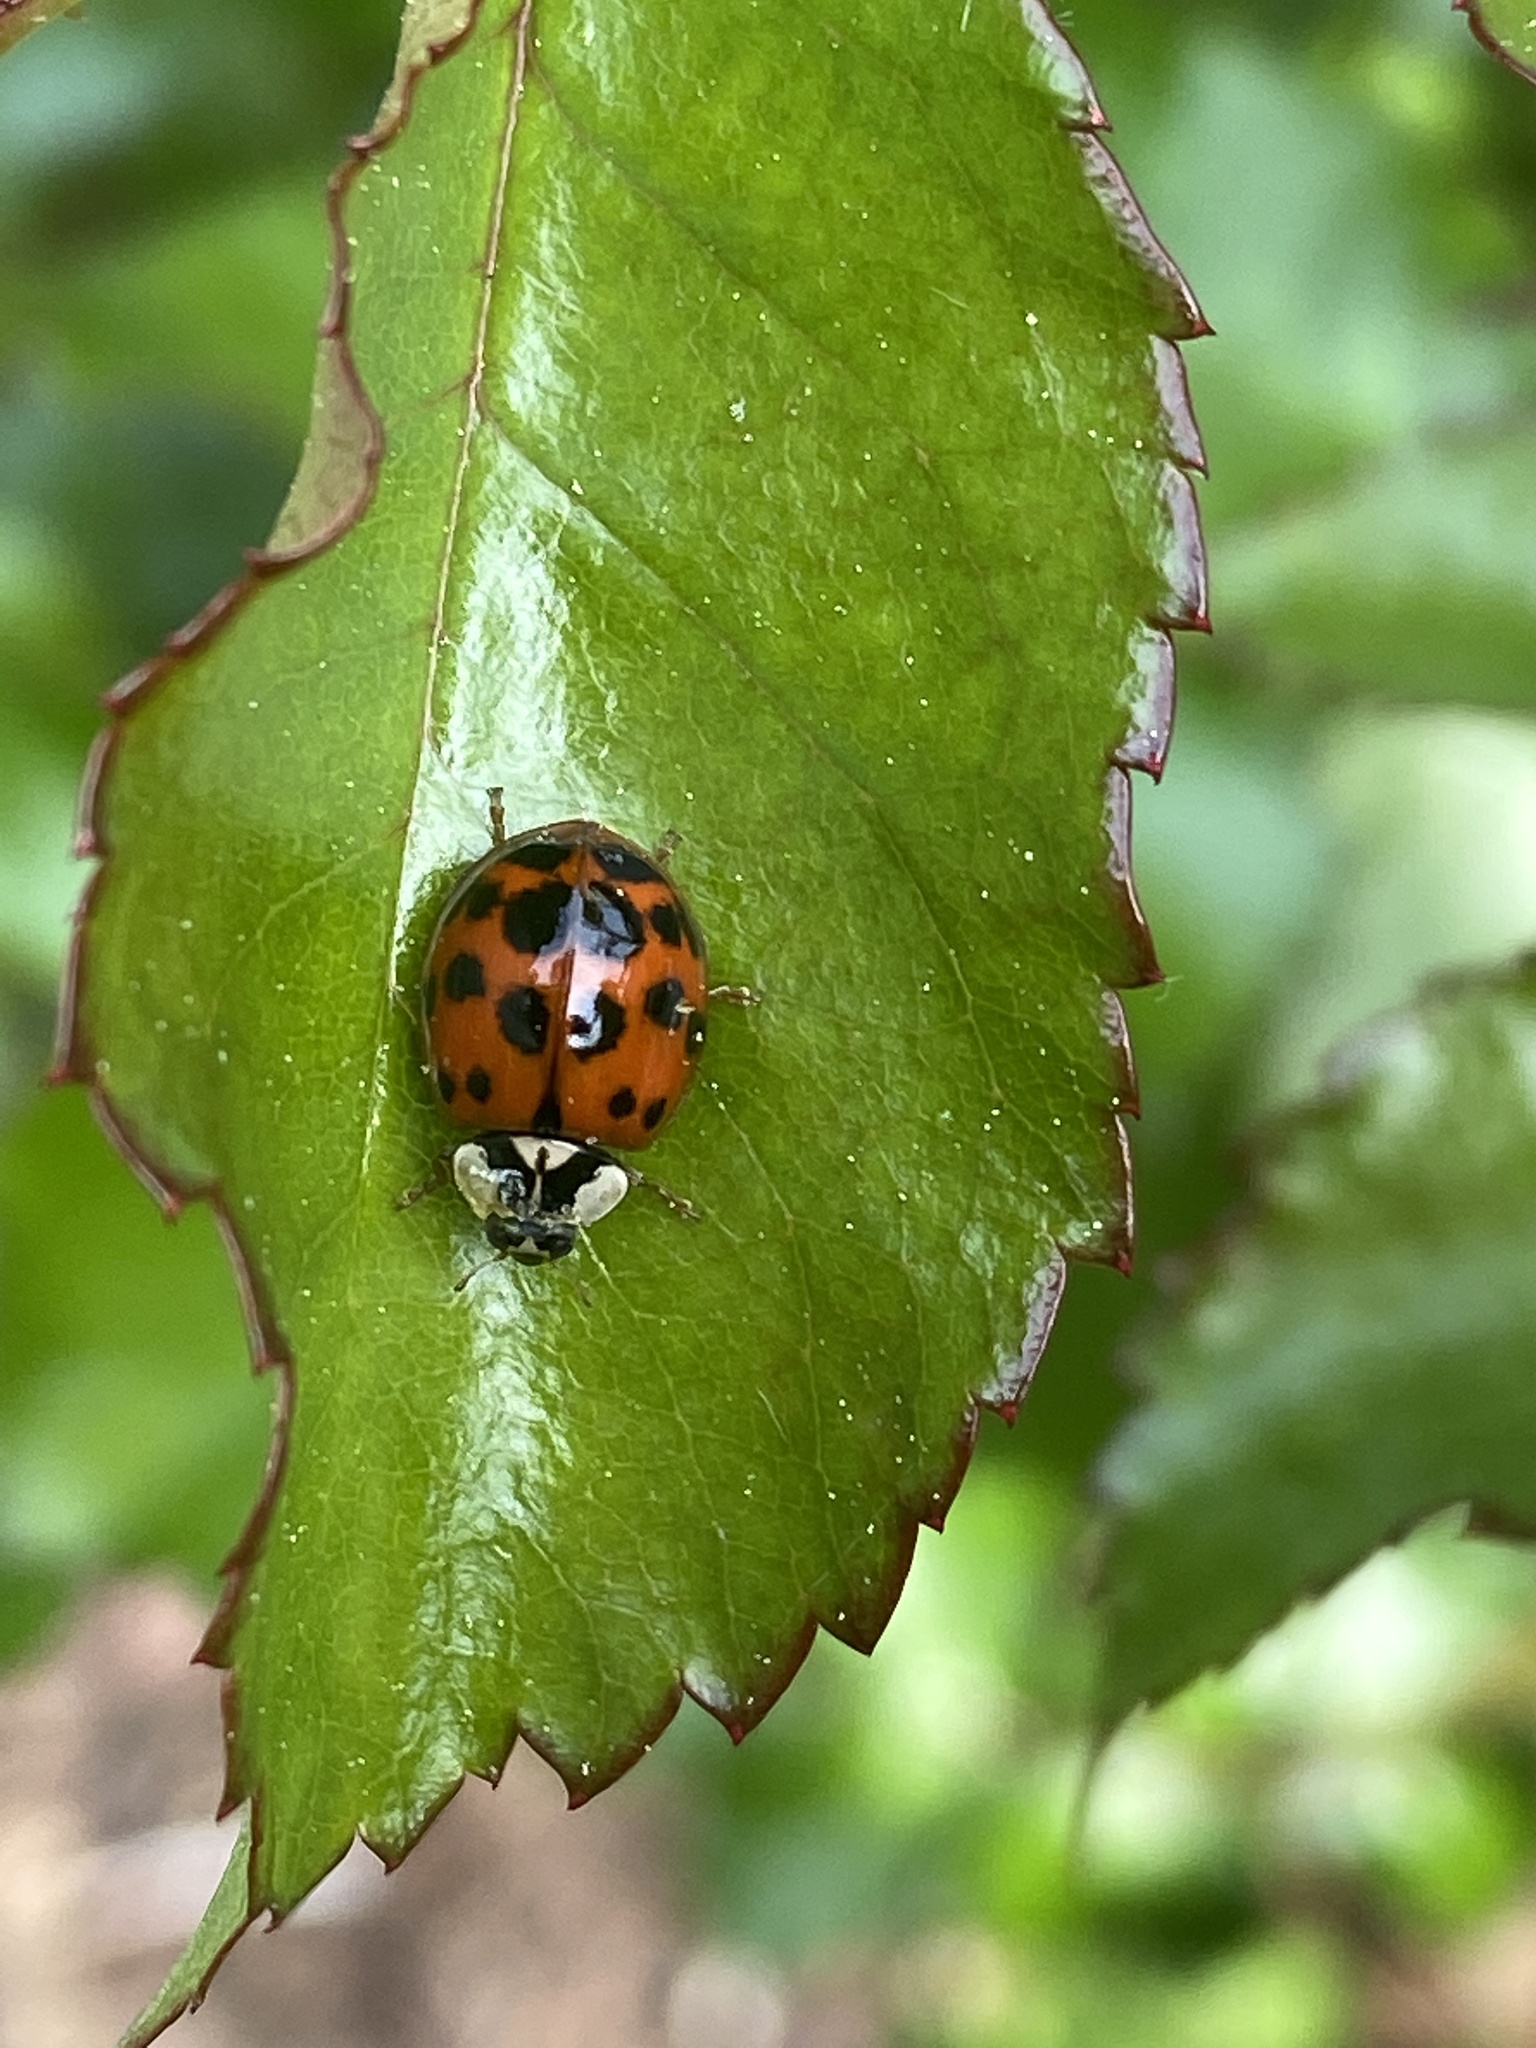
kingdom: Animalia
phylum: Arthropoda
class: Insecta
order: Coleoptera
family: Coccinellidae
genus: Harmonia
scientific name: Harmonia axyridis
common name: Harlequin ladybird
